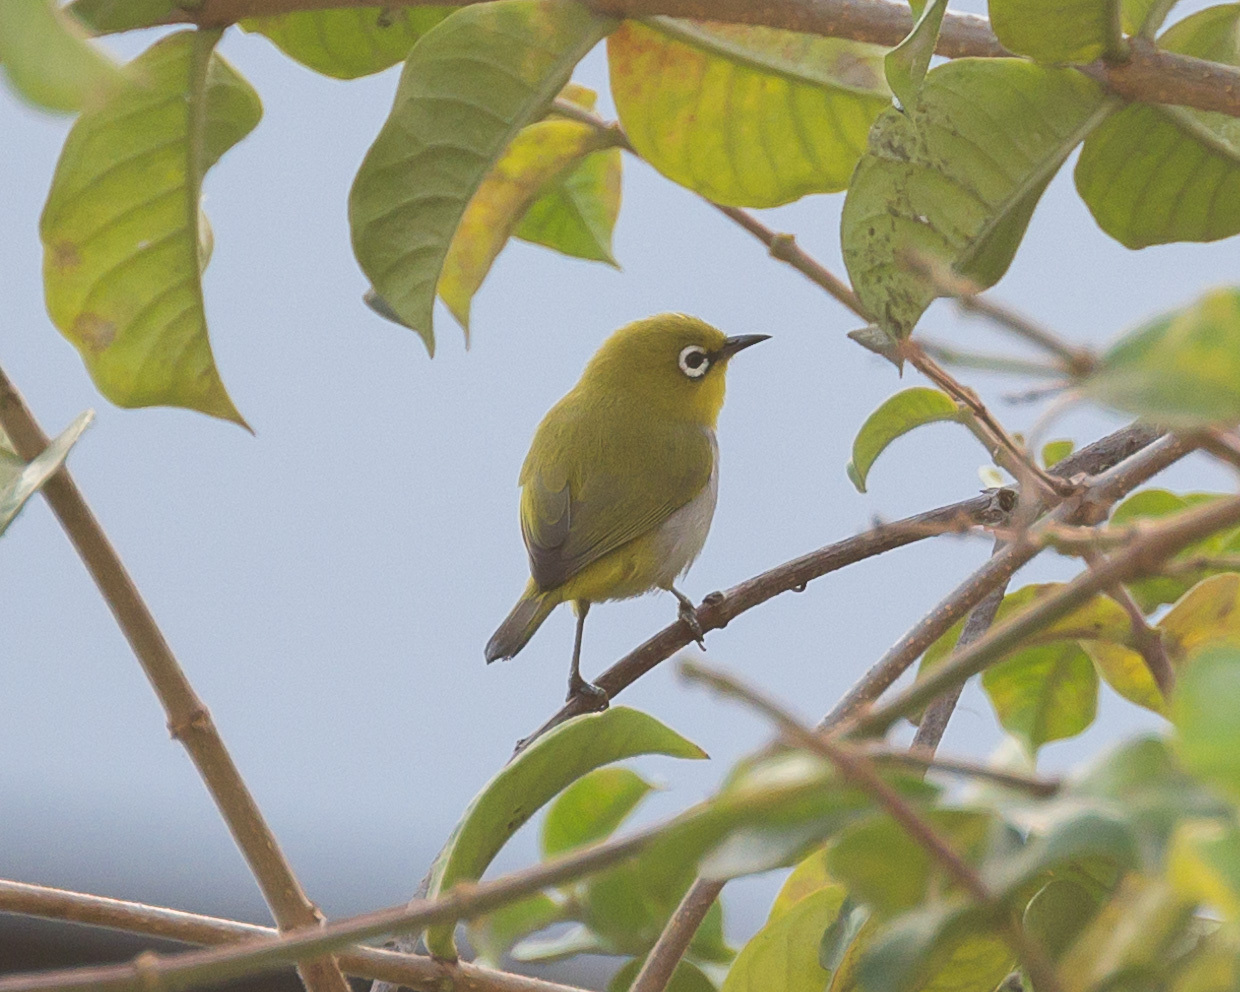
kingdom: Animalia
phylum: Chordata
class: Aves
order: Passeriformes
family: Zosteropidae
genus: Zosterops
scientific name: Zosterops palpebrosus
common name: Oriental white-eye
